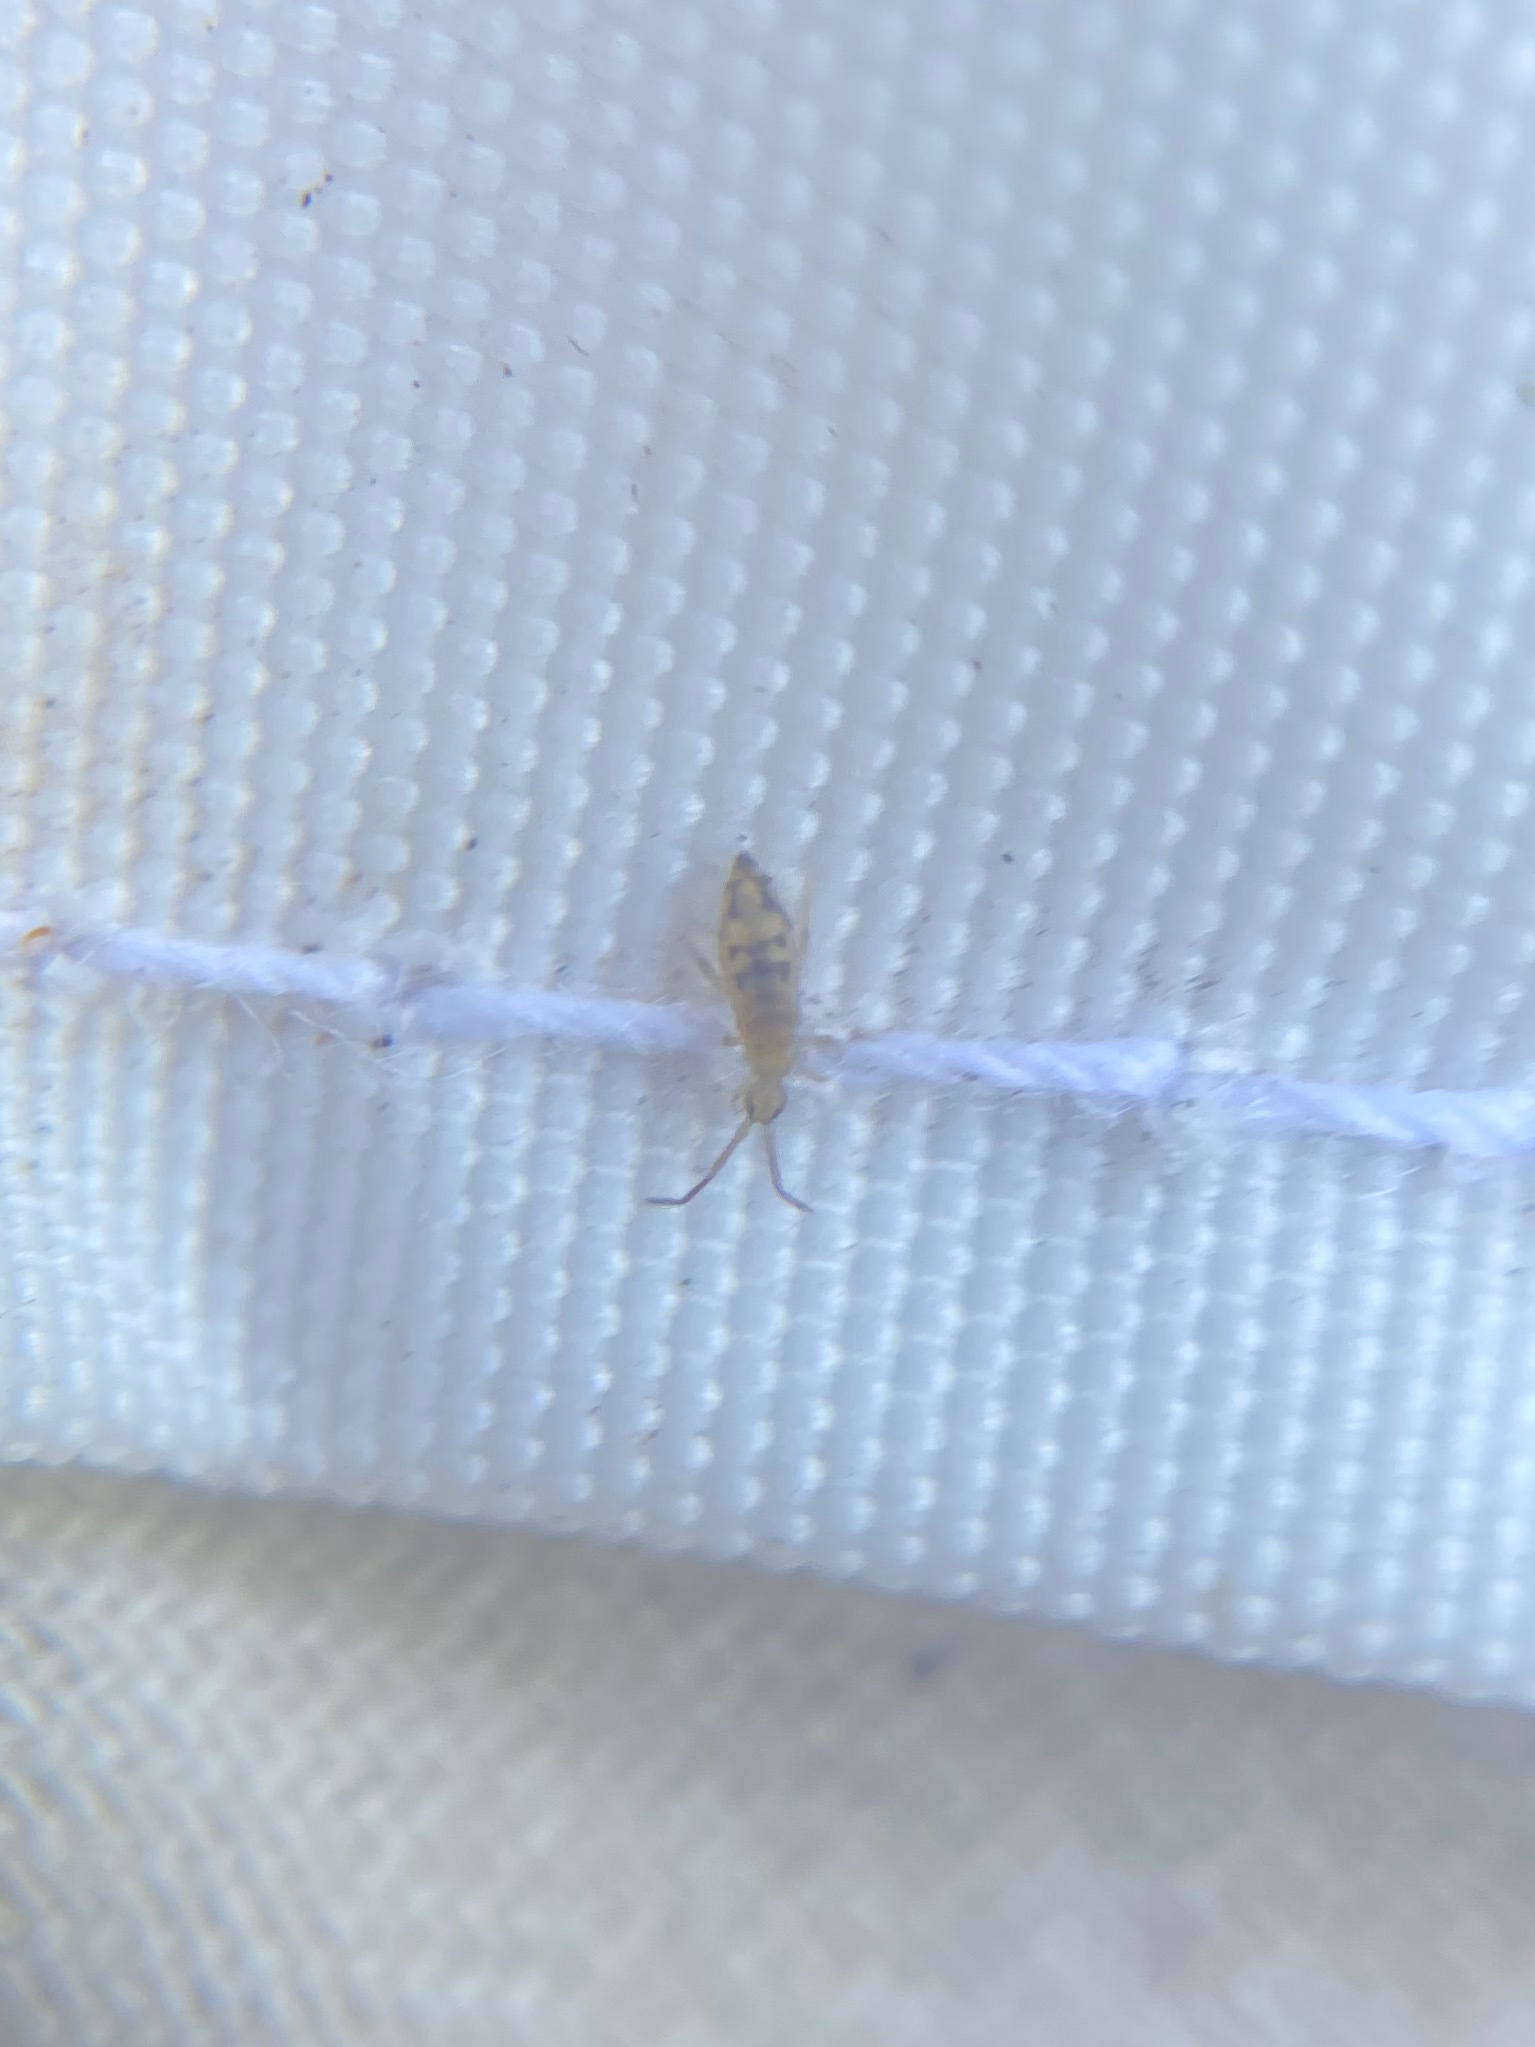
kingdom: Animalia
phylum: Arthropoda
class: Collembola
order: Entomobryomorpha
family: Entomobryidae
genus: Entomobrya
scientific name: Entomobrya nivalis
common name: Cosmopolitan springtail
